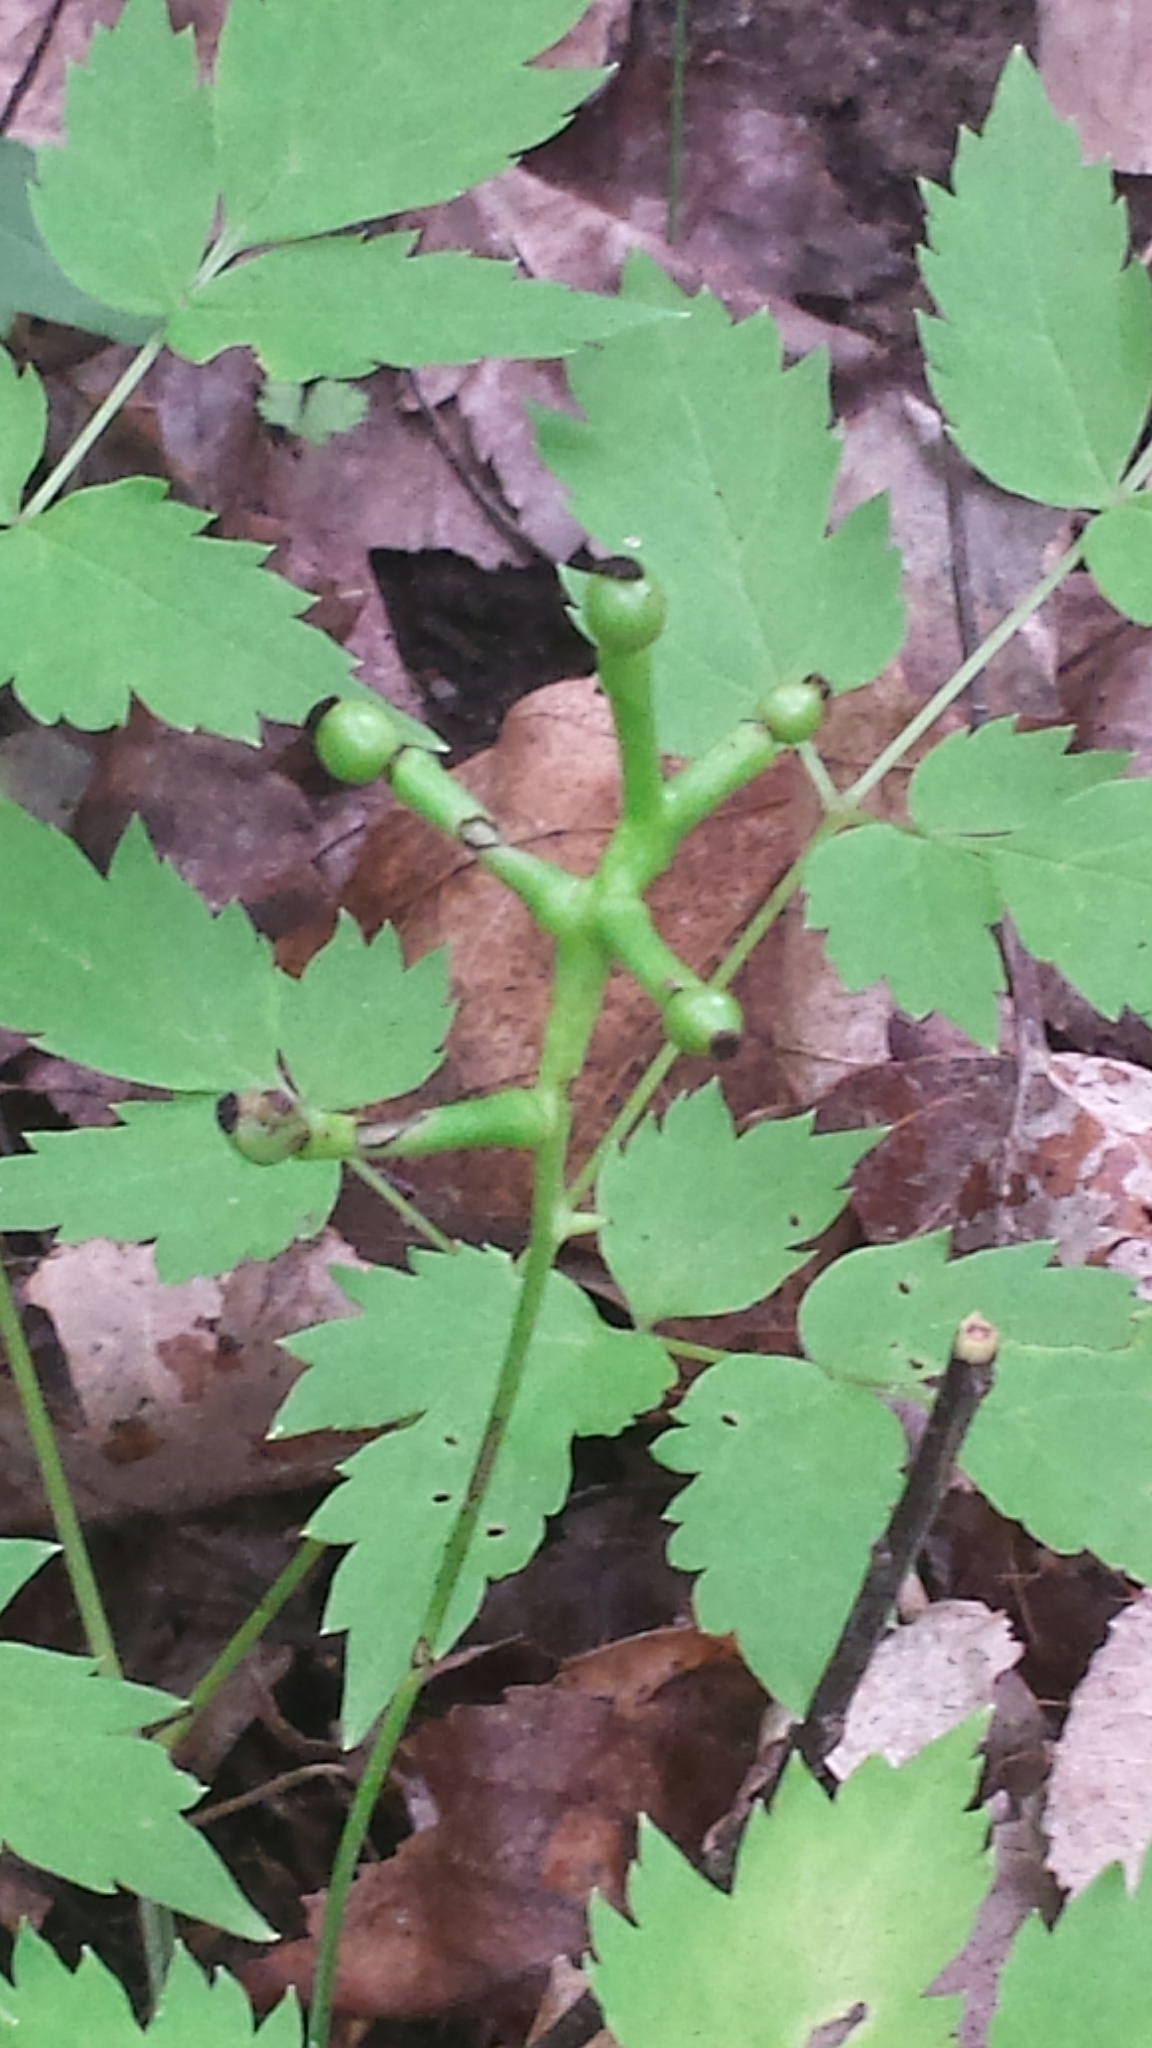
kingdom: Plantae
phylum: Tracheophyta
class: Magnoliopsida
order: Ranunculales
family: Ranunculaceae
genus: Actaea
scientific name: Actaea pachypoda
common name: Doll's-eyes
